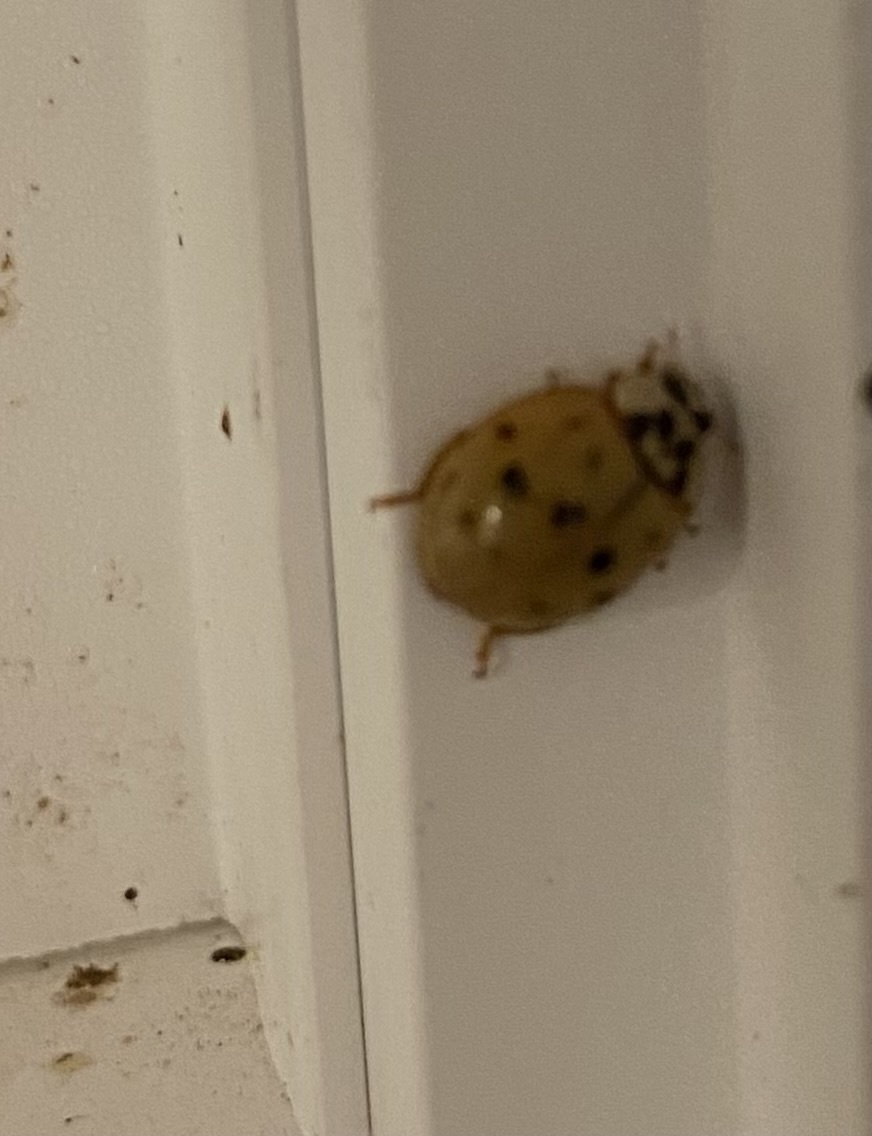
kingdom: Animalia
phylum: Arthropoda
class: Insecta
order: Coleoptera
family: Coccinellidae
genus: Harmonia
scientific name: Harmonia axyridis
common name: Harlequin ladybird
